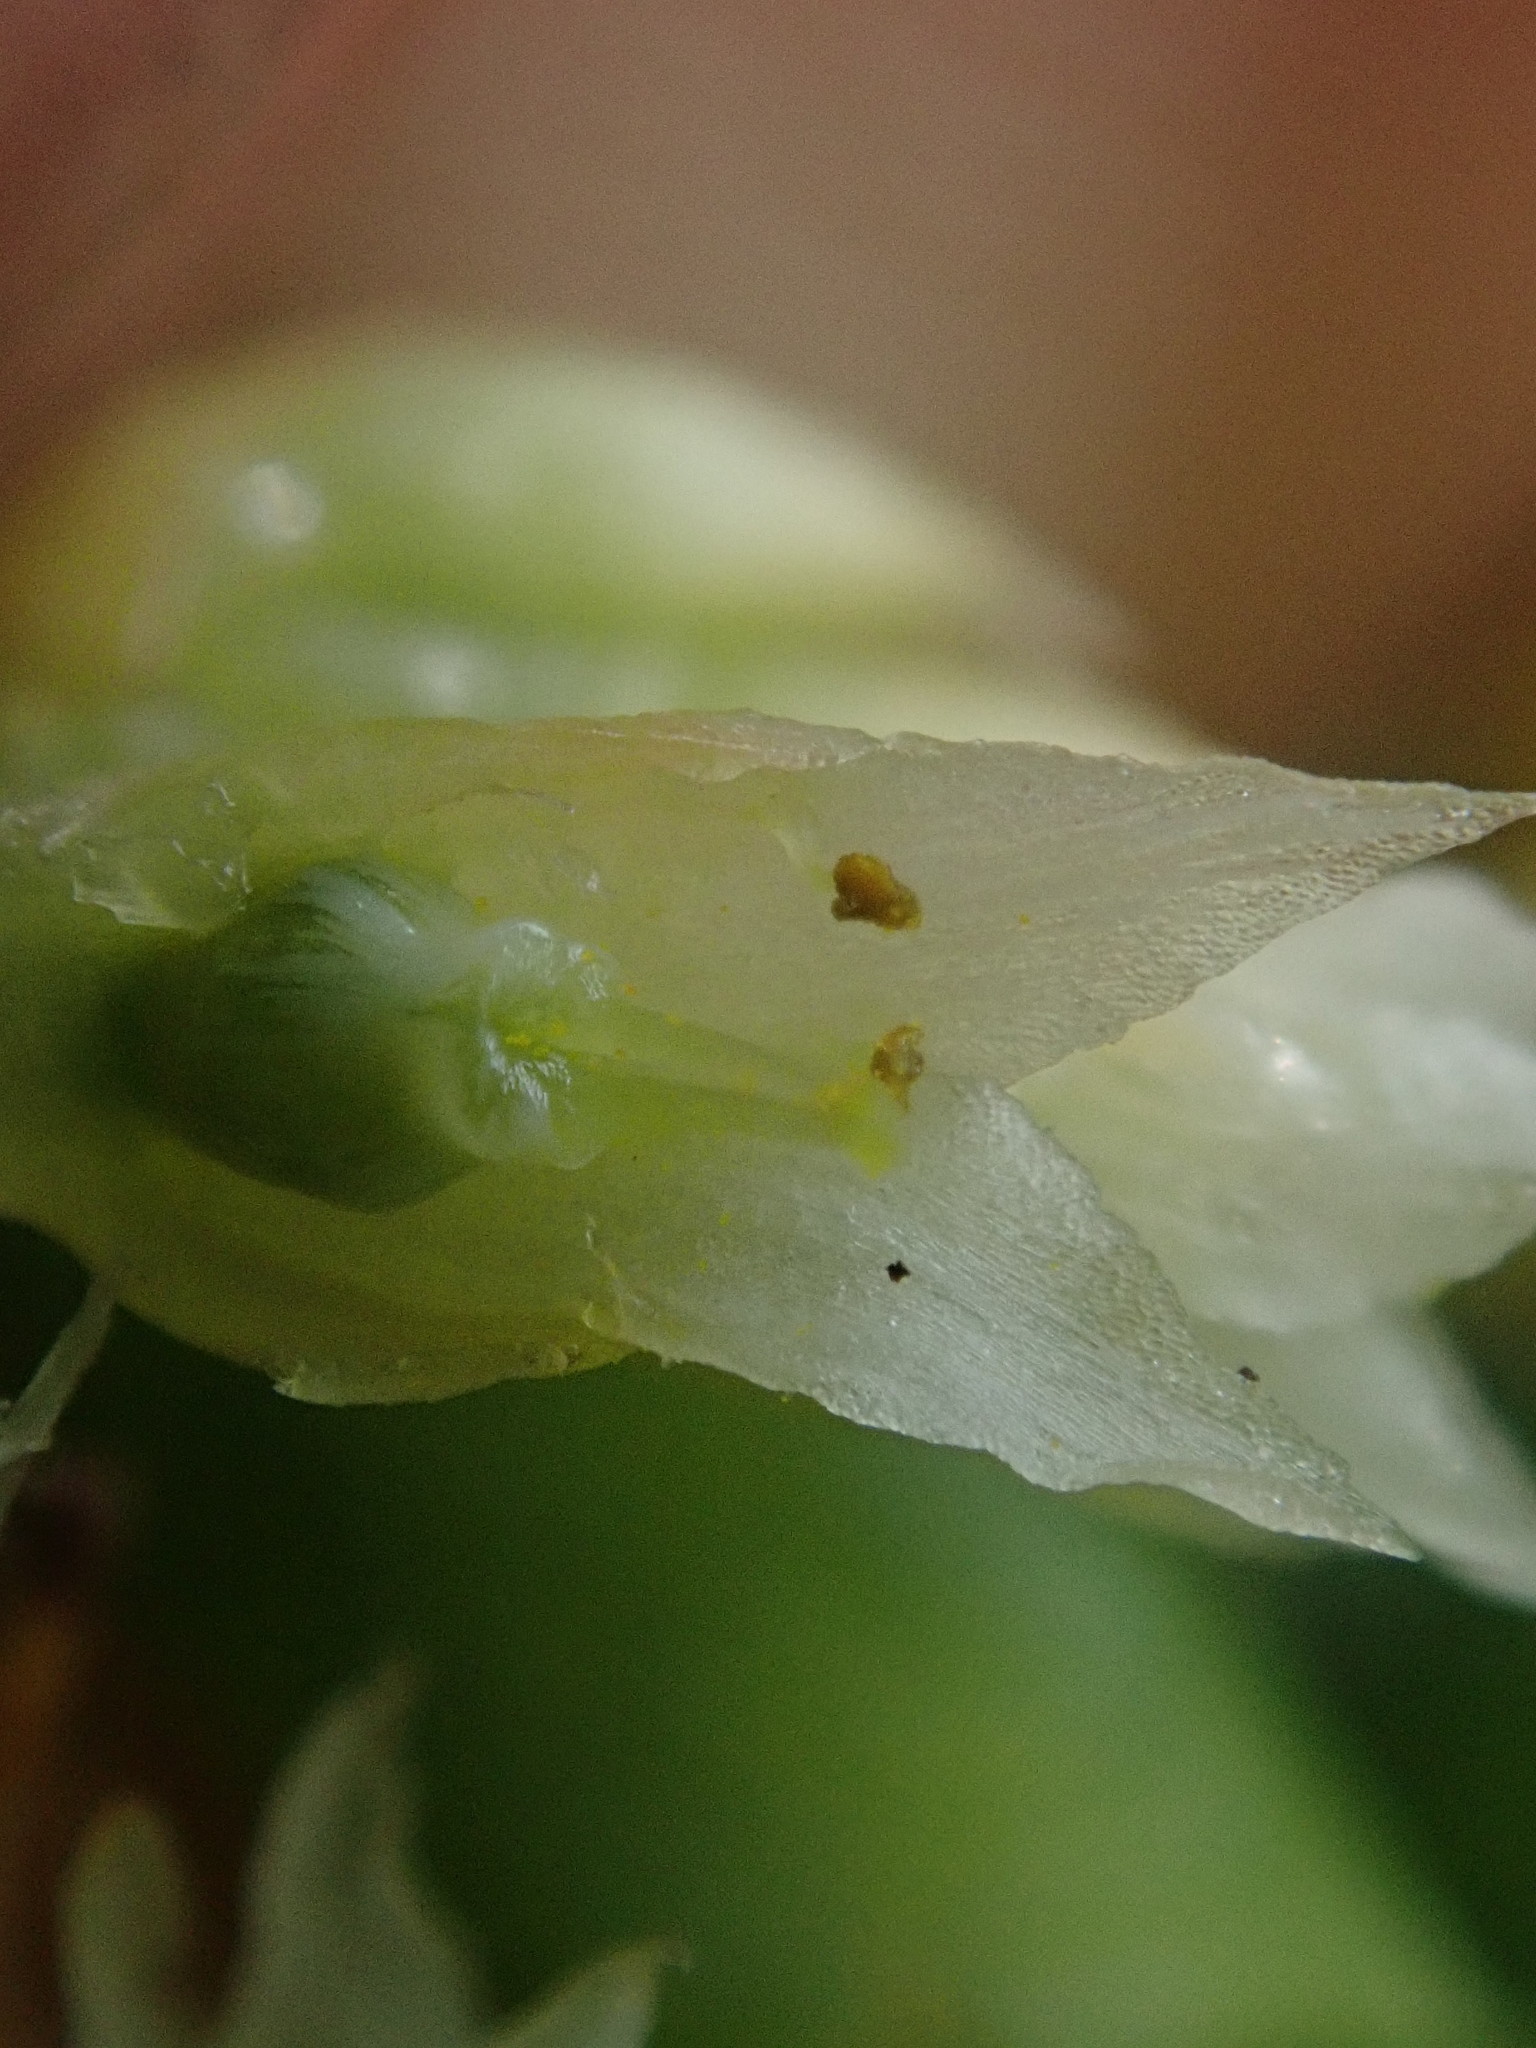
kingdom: Plantae
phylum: Tracheophyta
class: Magnoliopsida
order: Solanales
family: Convolvulaceae
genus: Cuscuta
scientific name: Cuscuta pacifica
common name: Large saltmarsh dodder
